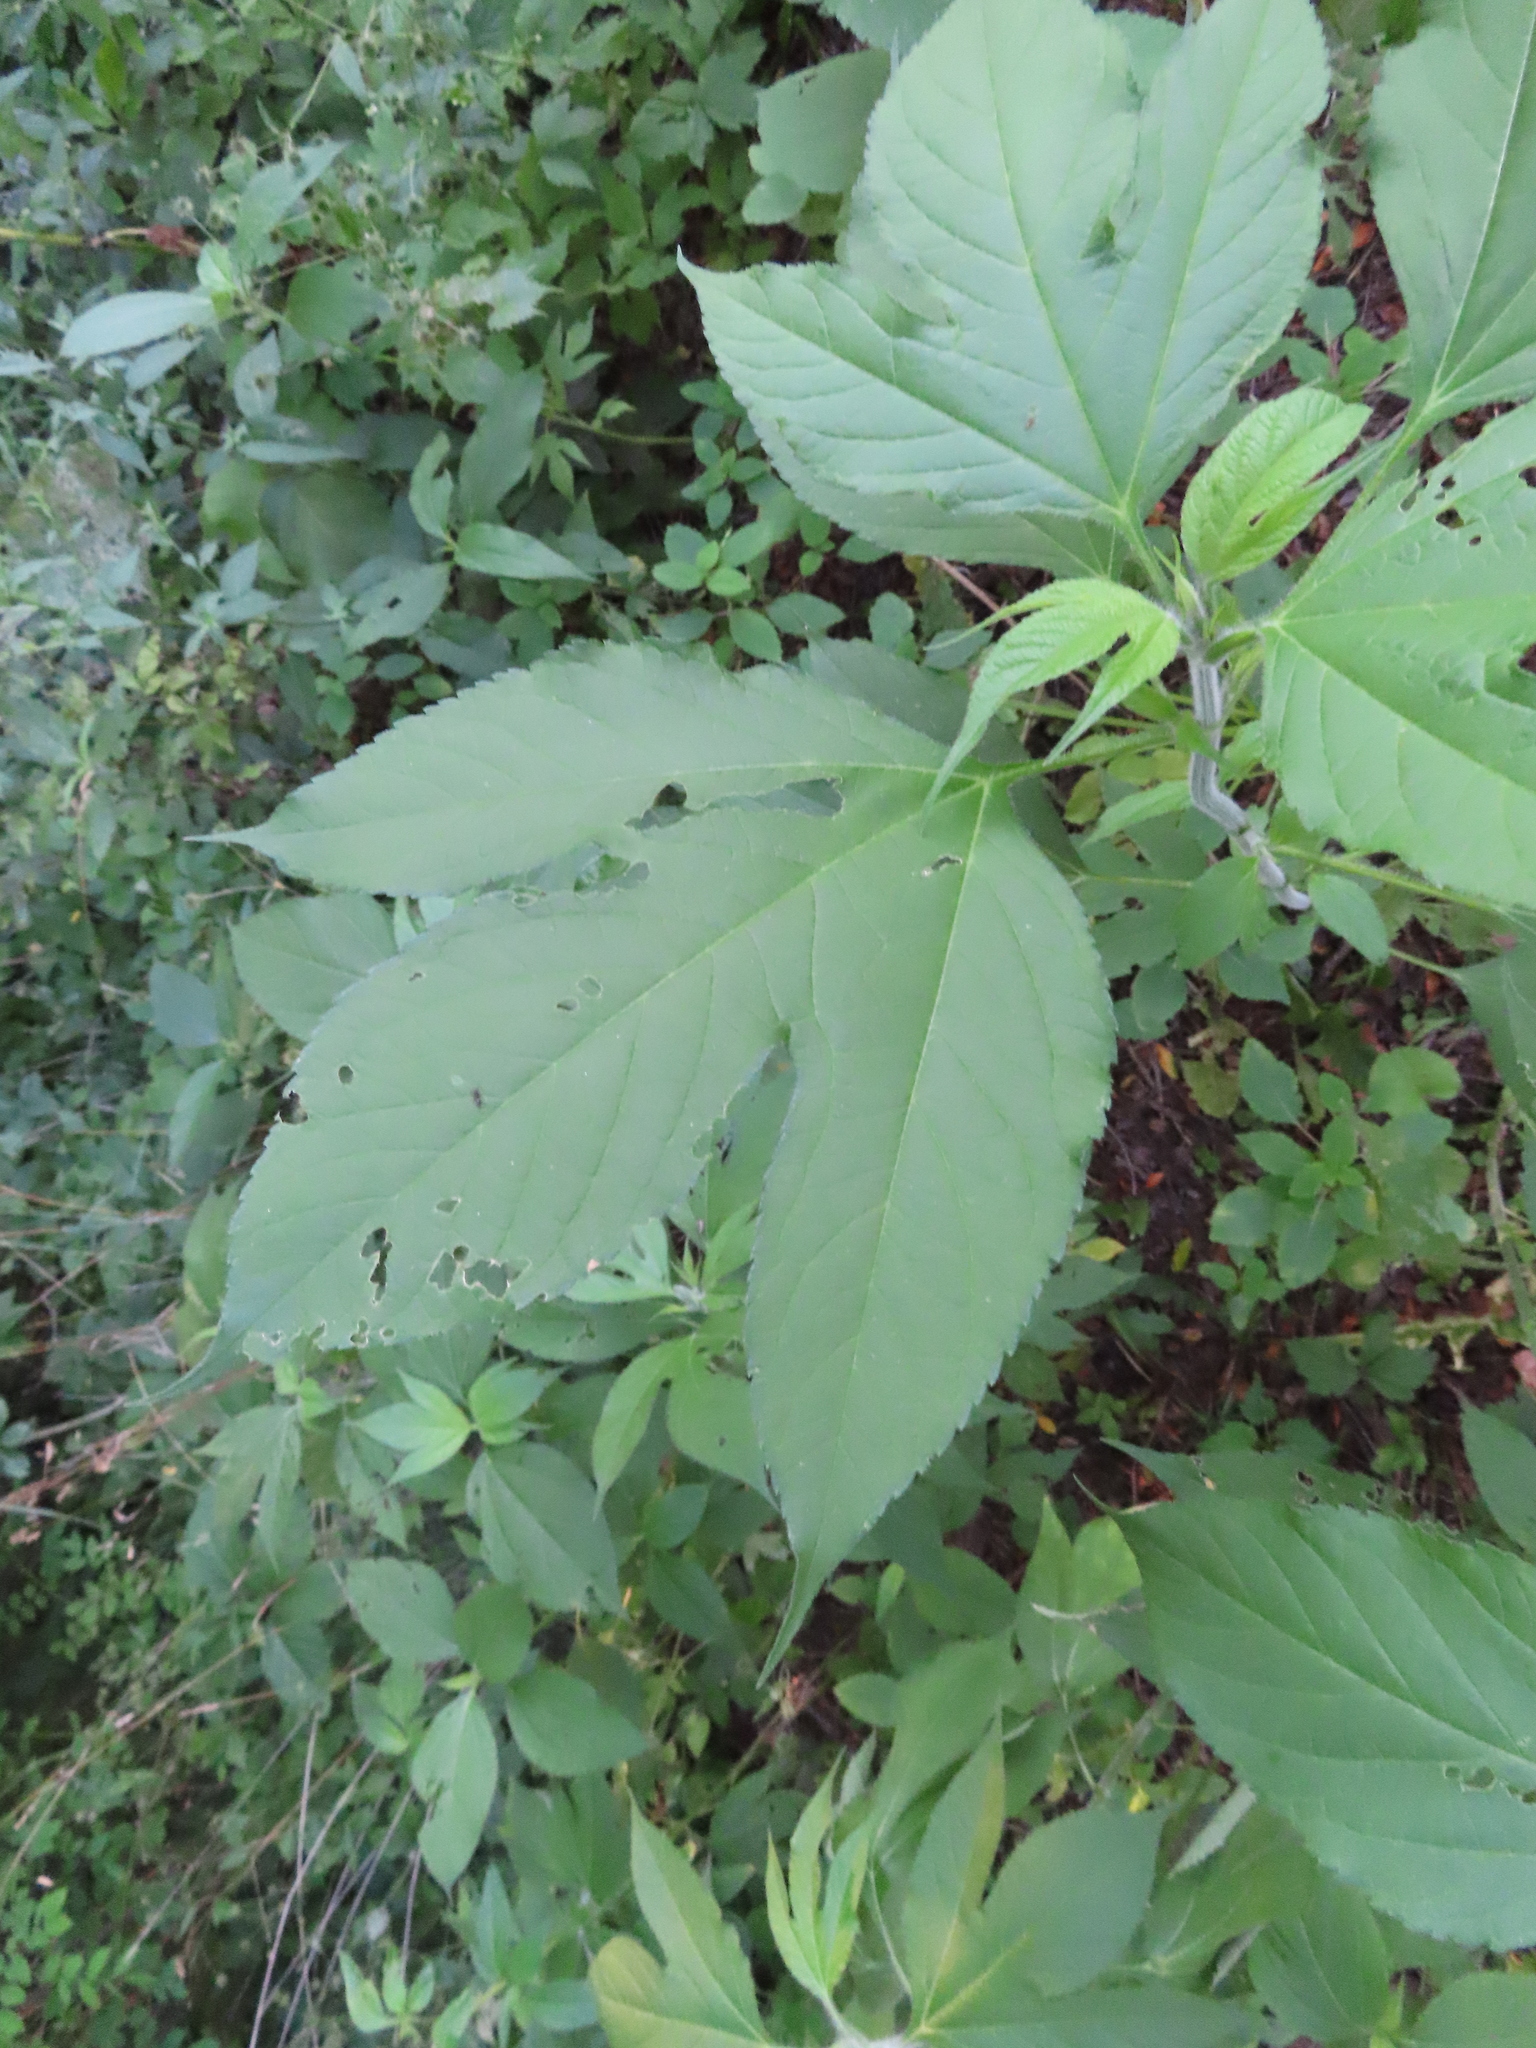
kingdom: Plantae
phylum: Tracheophyta
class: Magnoliopsida
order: Asterales
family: Asteraceae
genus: Ambrosia
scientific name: Ambrosia trifida
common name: Giant ragweed
